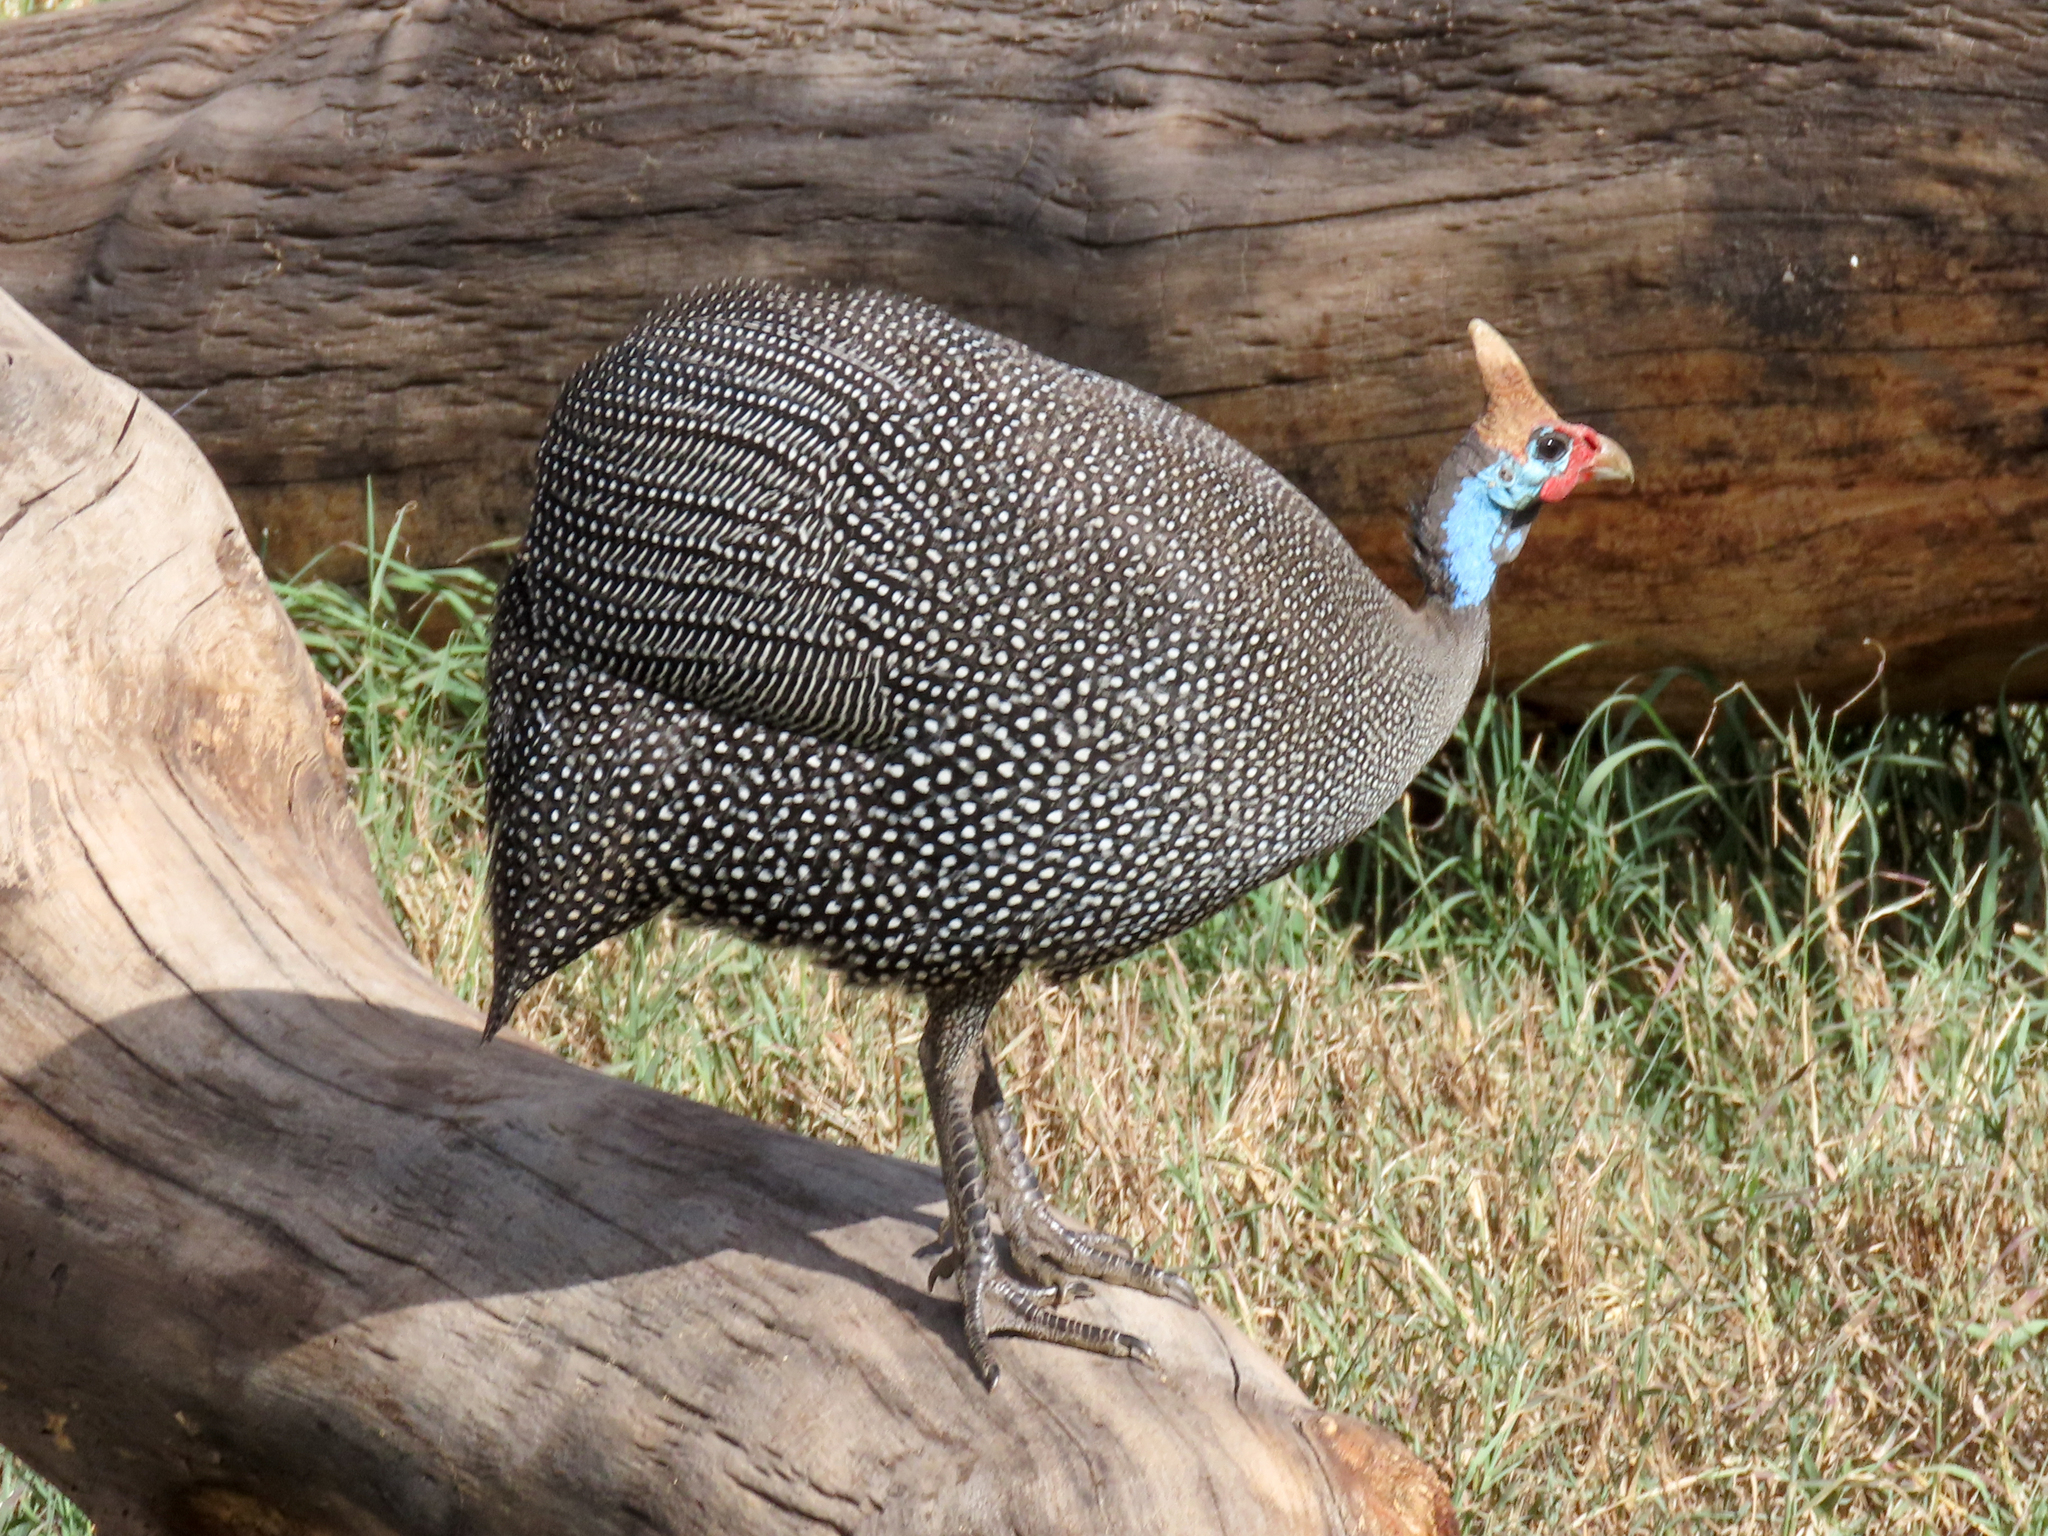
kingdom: Animalia
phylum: Chordata
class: Aves
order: Galliformes
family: Numididae
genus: Numida
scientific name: Numida meleagris
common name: Helmeted guineafowl
